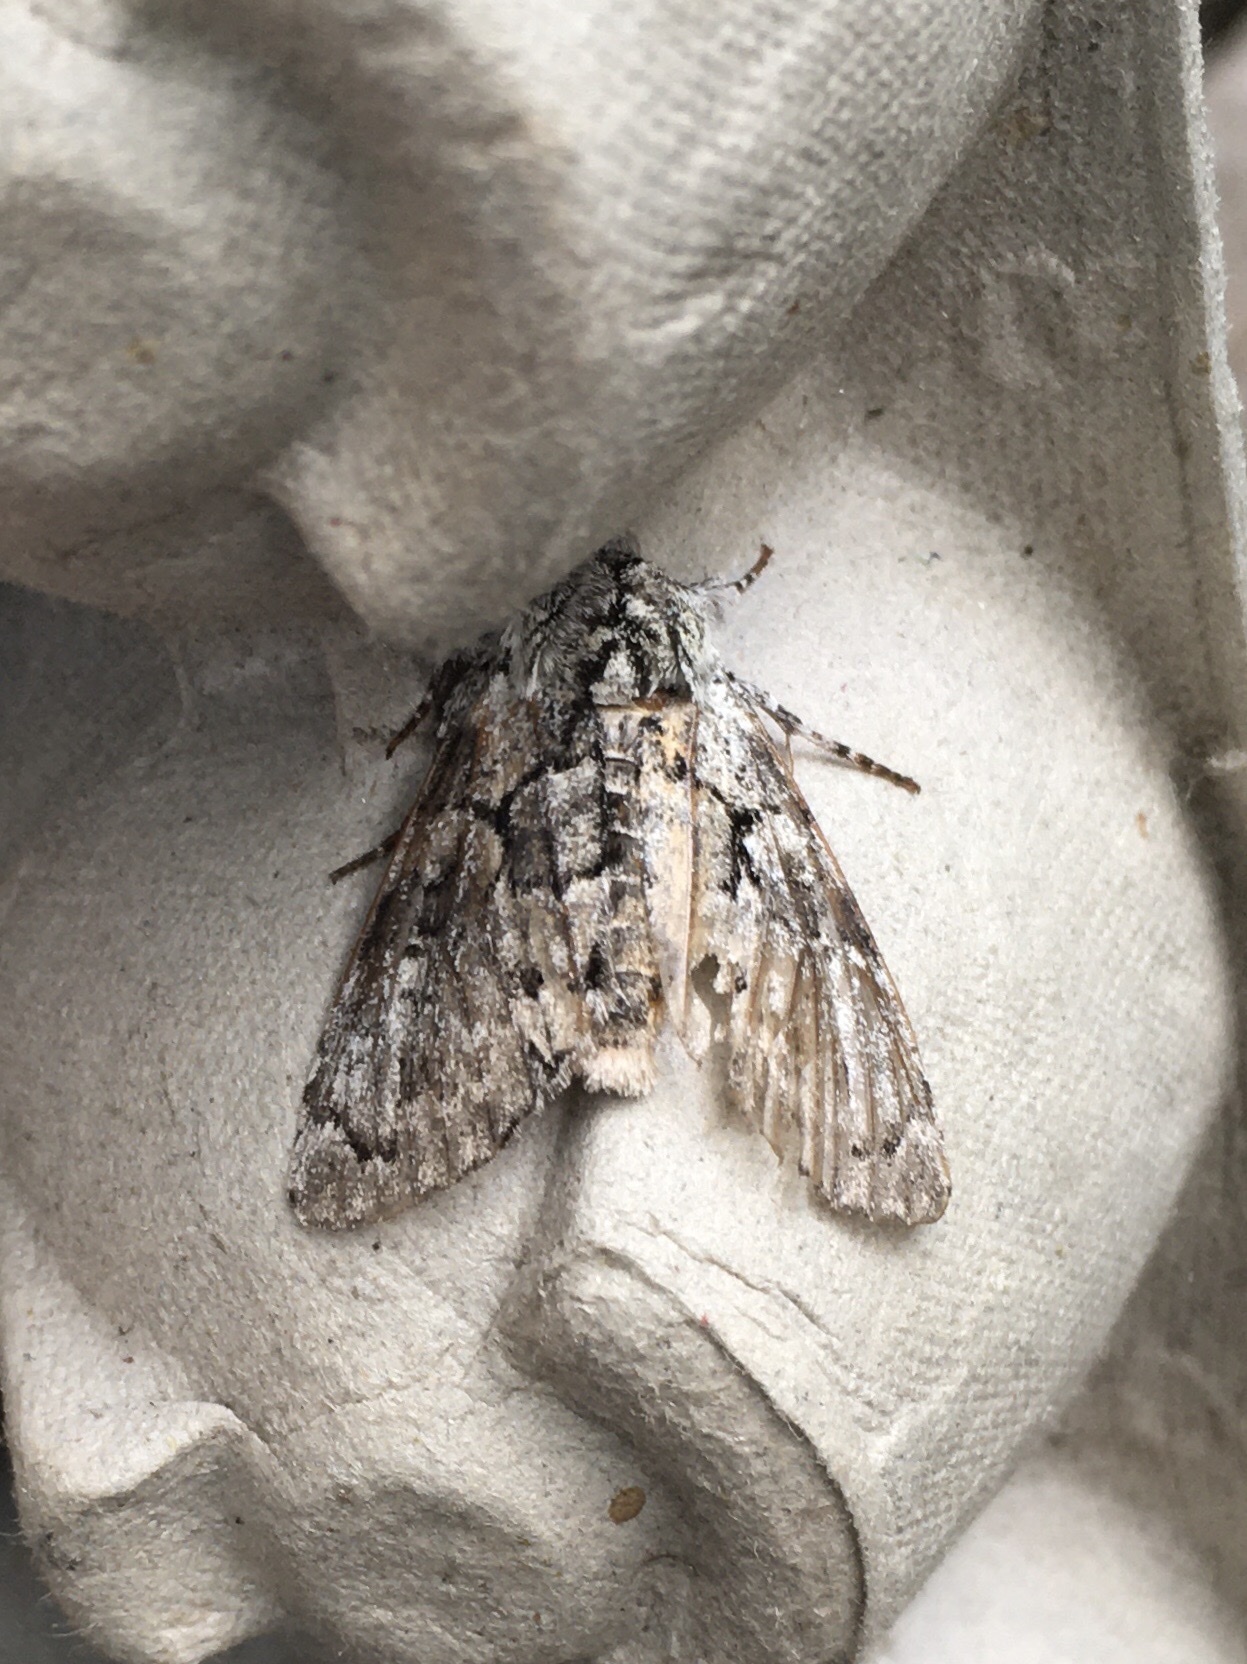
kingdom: Animalia
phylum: Arthropoda
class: Insecta
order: Lepidoptera
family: Noctuidae
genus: Charadra
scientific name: Charadra deridens
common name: Marbled tuffet
